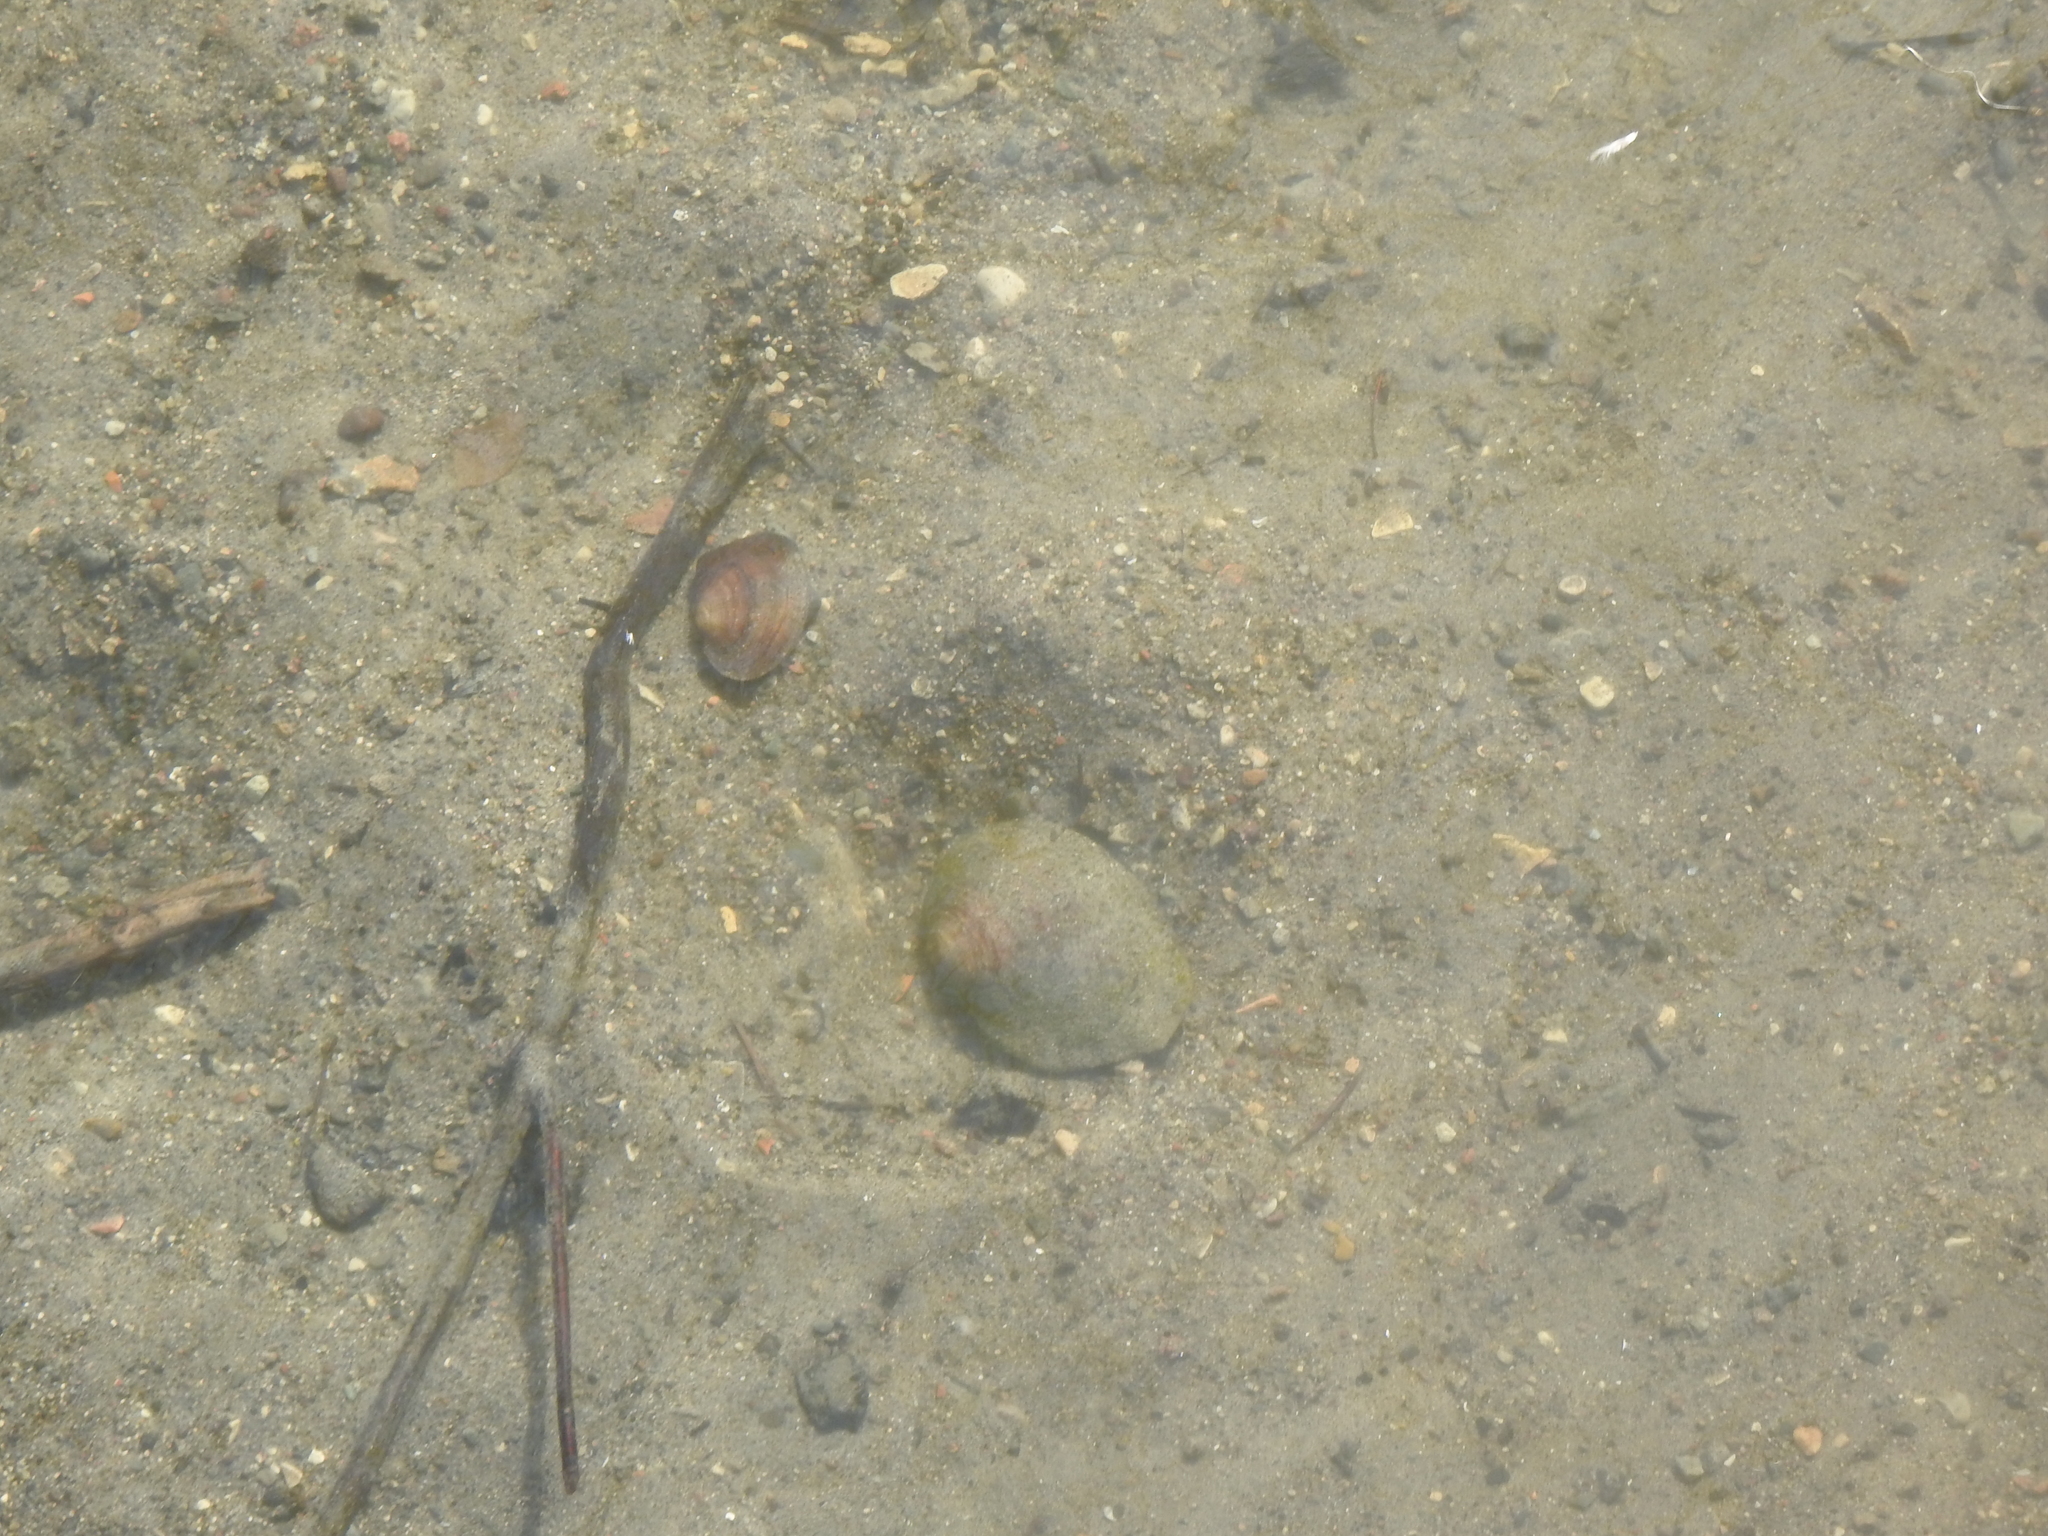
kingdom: Animalia
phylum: Mollusca
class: Bivalvia
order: Unionida
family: Unionidae
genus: Lasmigona
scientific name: Lasmigona
